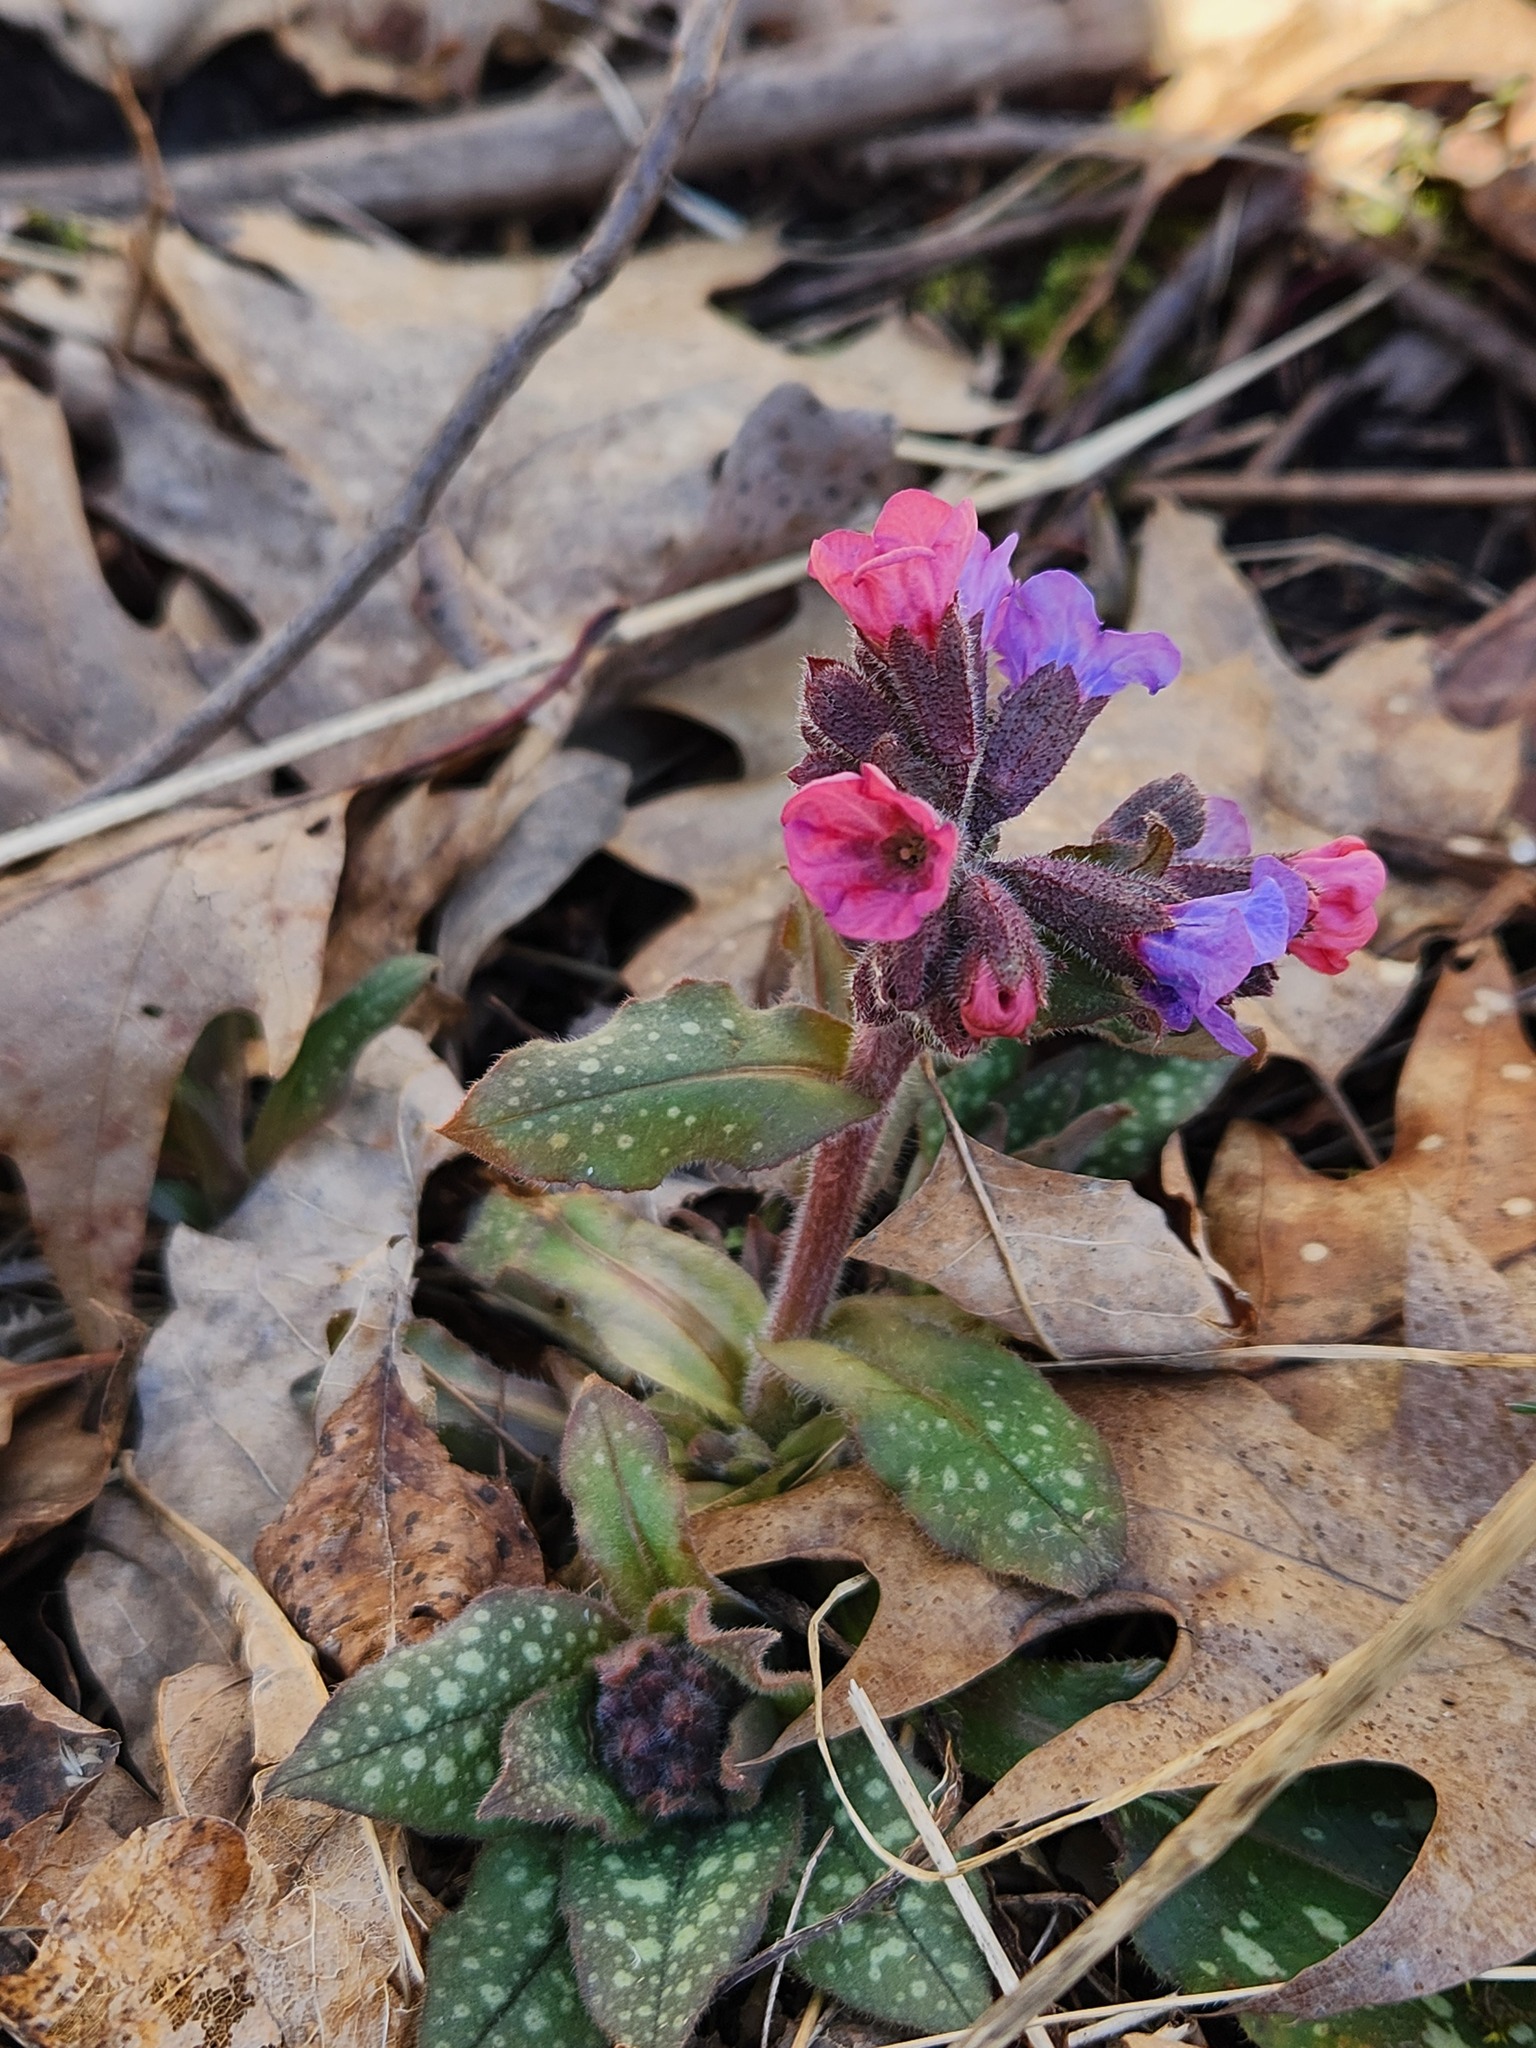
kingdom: Plantae
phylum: Tracheophyta
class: Magnoliopsida
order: Boraginales
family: Boraginaceae
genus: Pulmonaria
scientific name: Pulmonaria officinalis
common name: Lungwort
